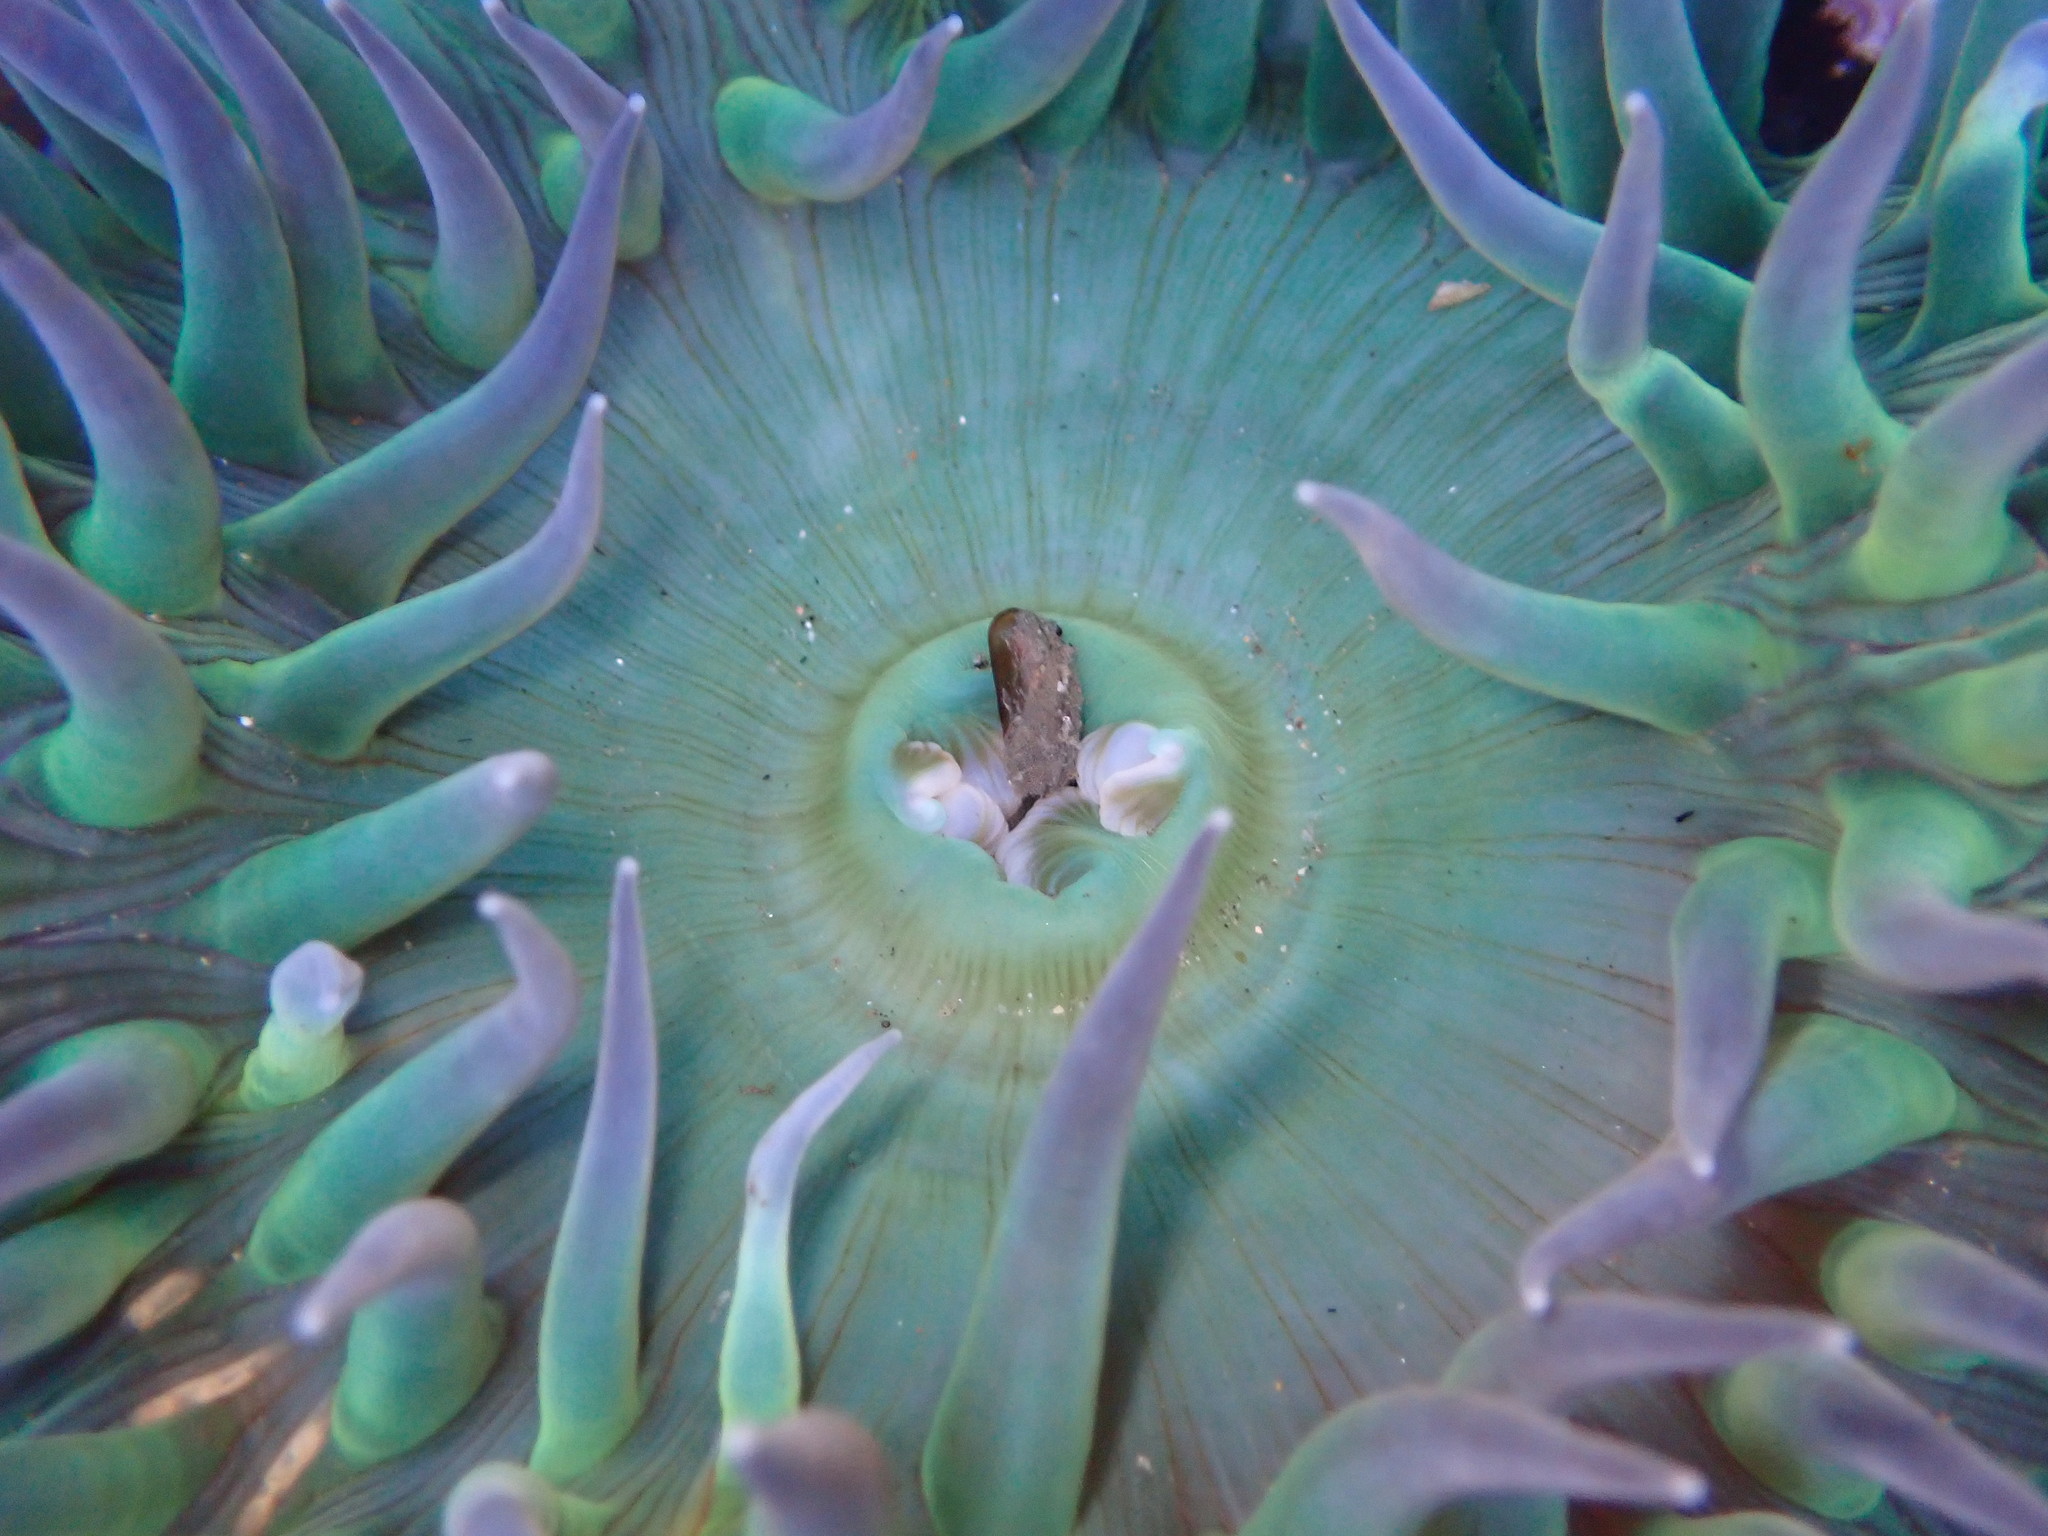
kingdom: Animalia
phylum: Cnidaria
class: Anthozoa
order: Actiniaria
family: Actiniidae
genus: Anthopleura
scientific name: Anthopleura xanthogrammica
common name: Giant green anemone
